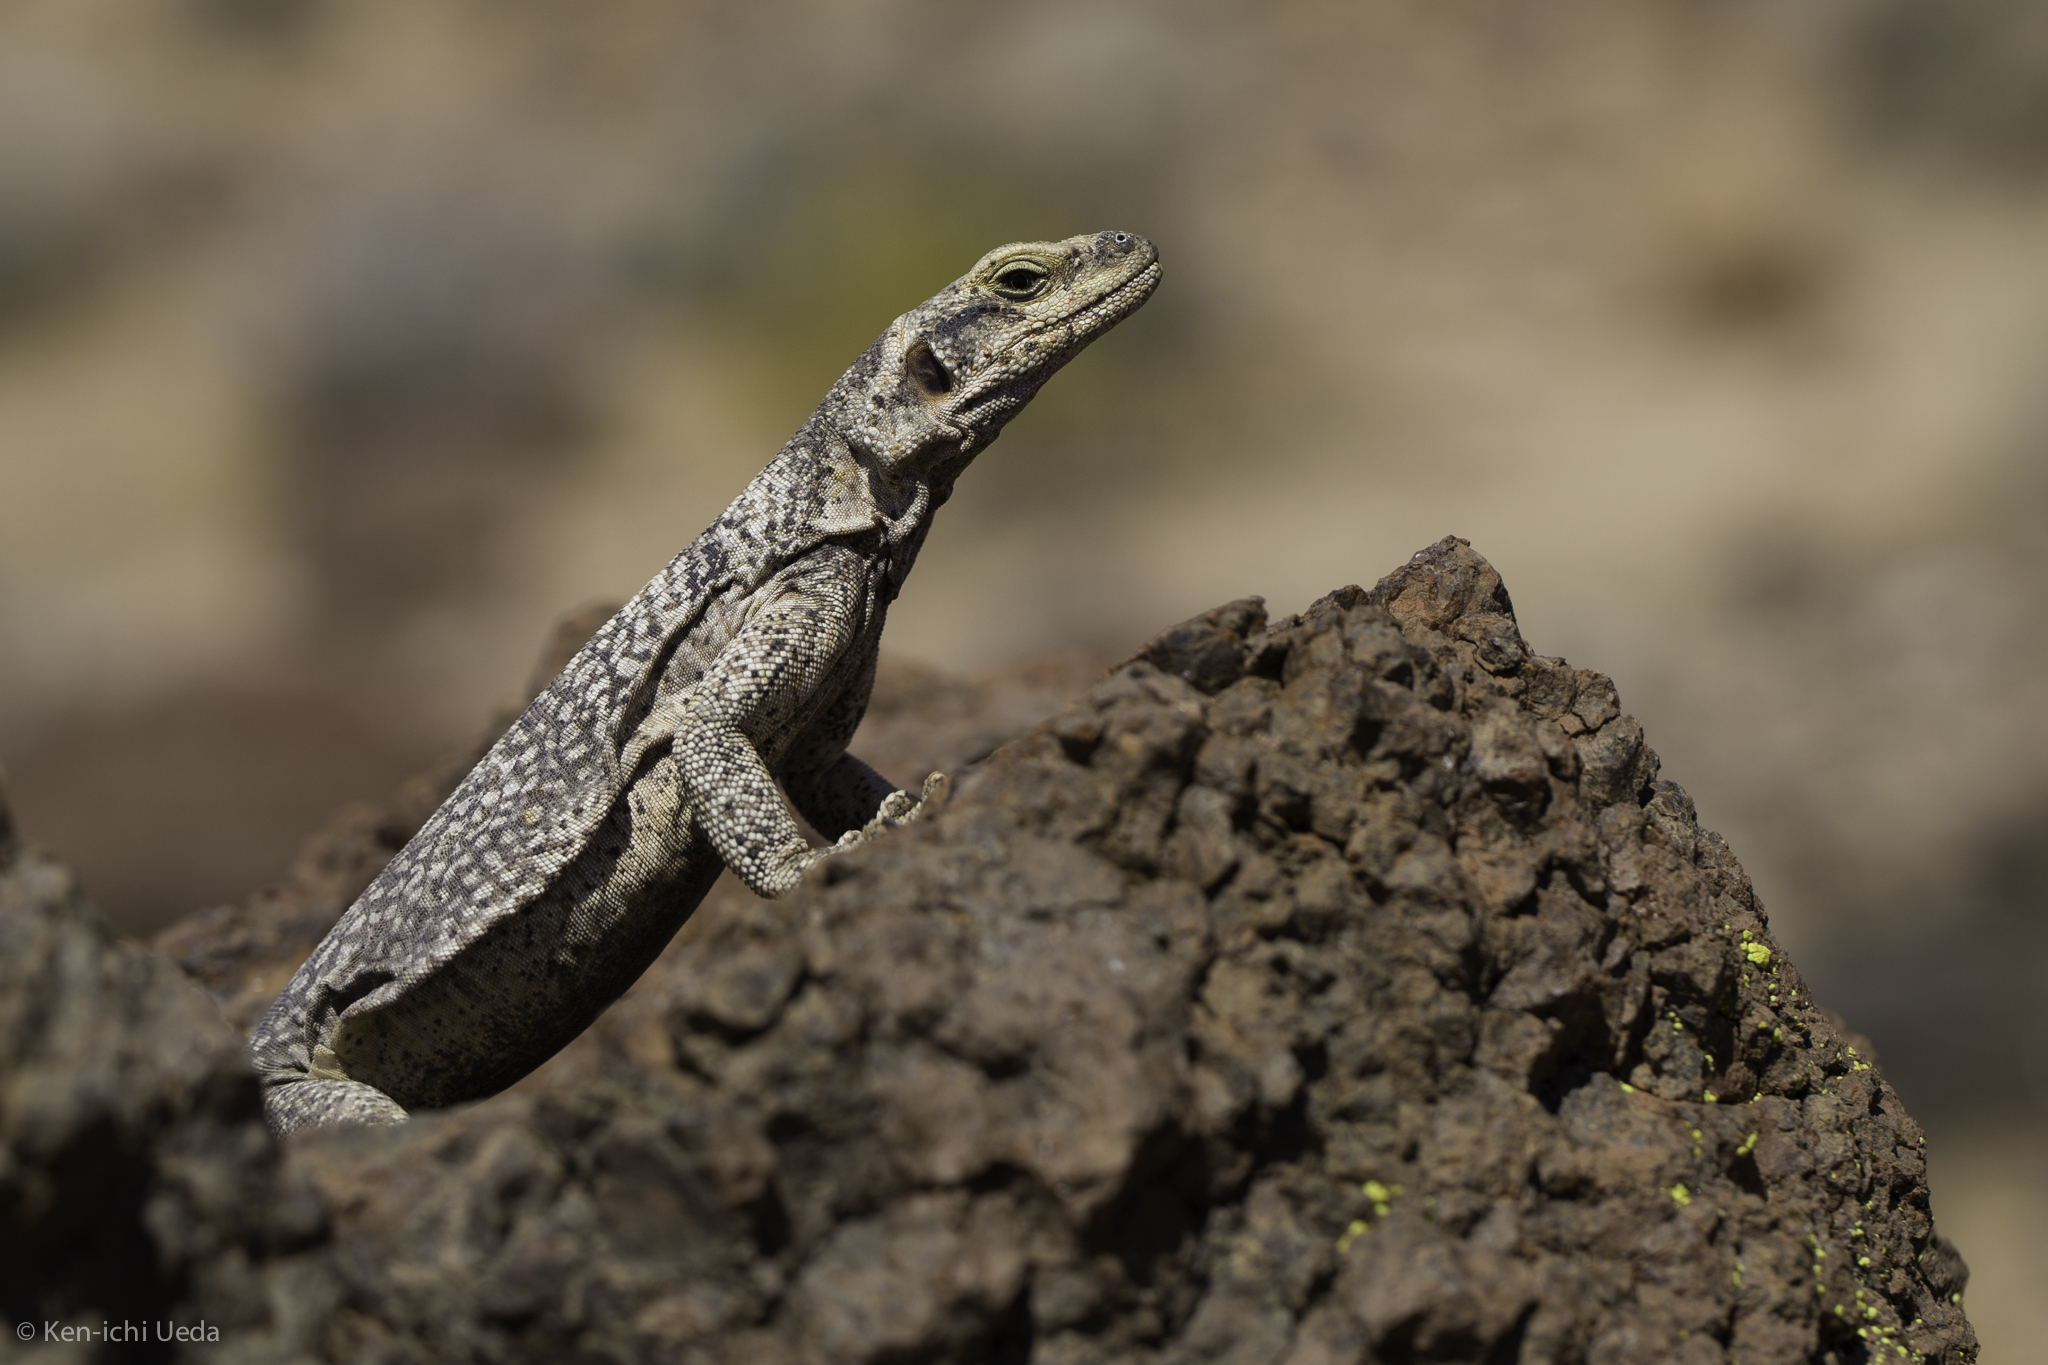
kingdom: Animalia
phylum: Chordata
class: Squamata
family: Iguanidae
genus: Sauromalus
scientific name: Sauromalus ater
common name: Northern chuckwalla
